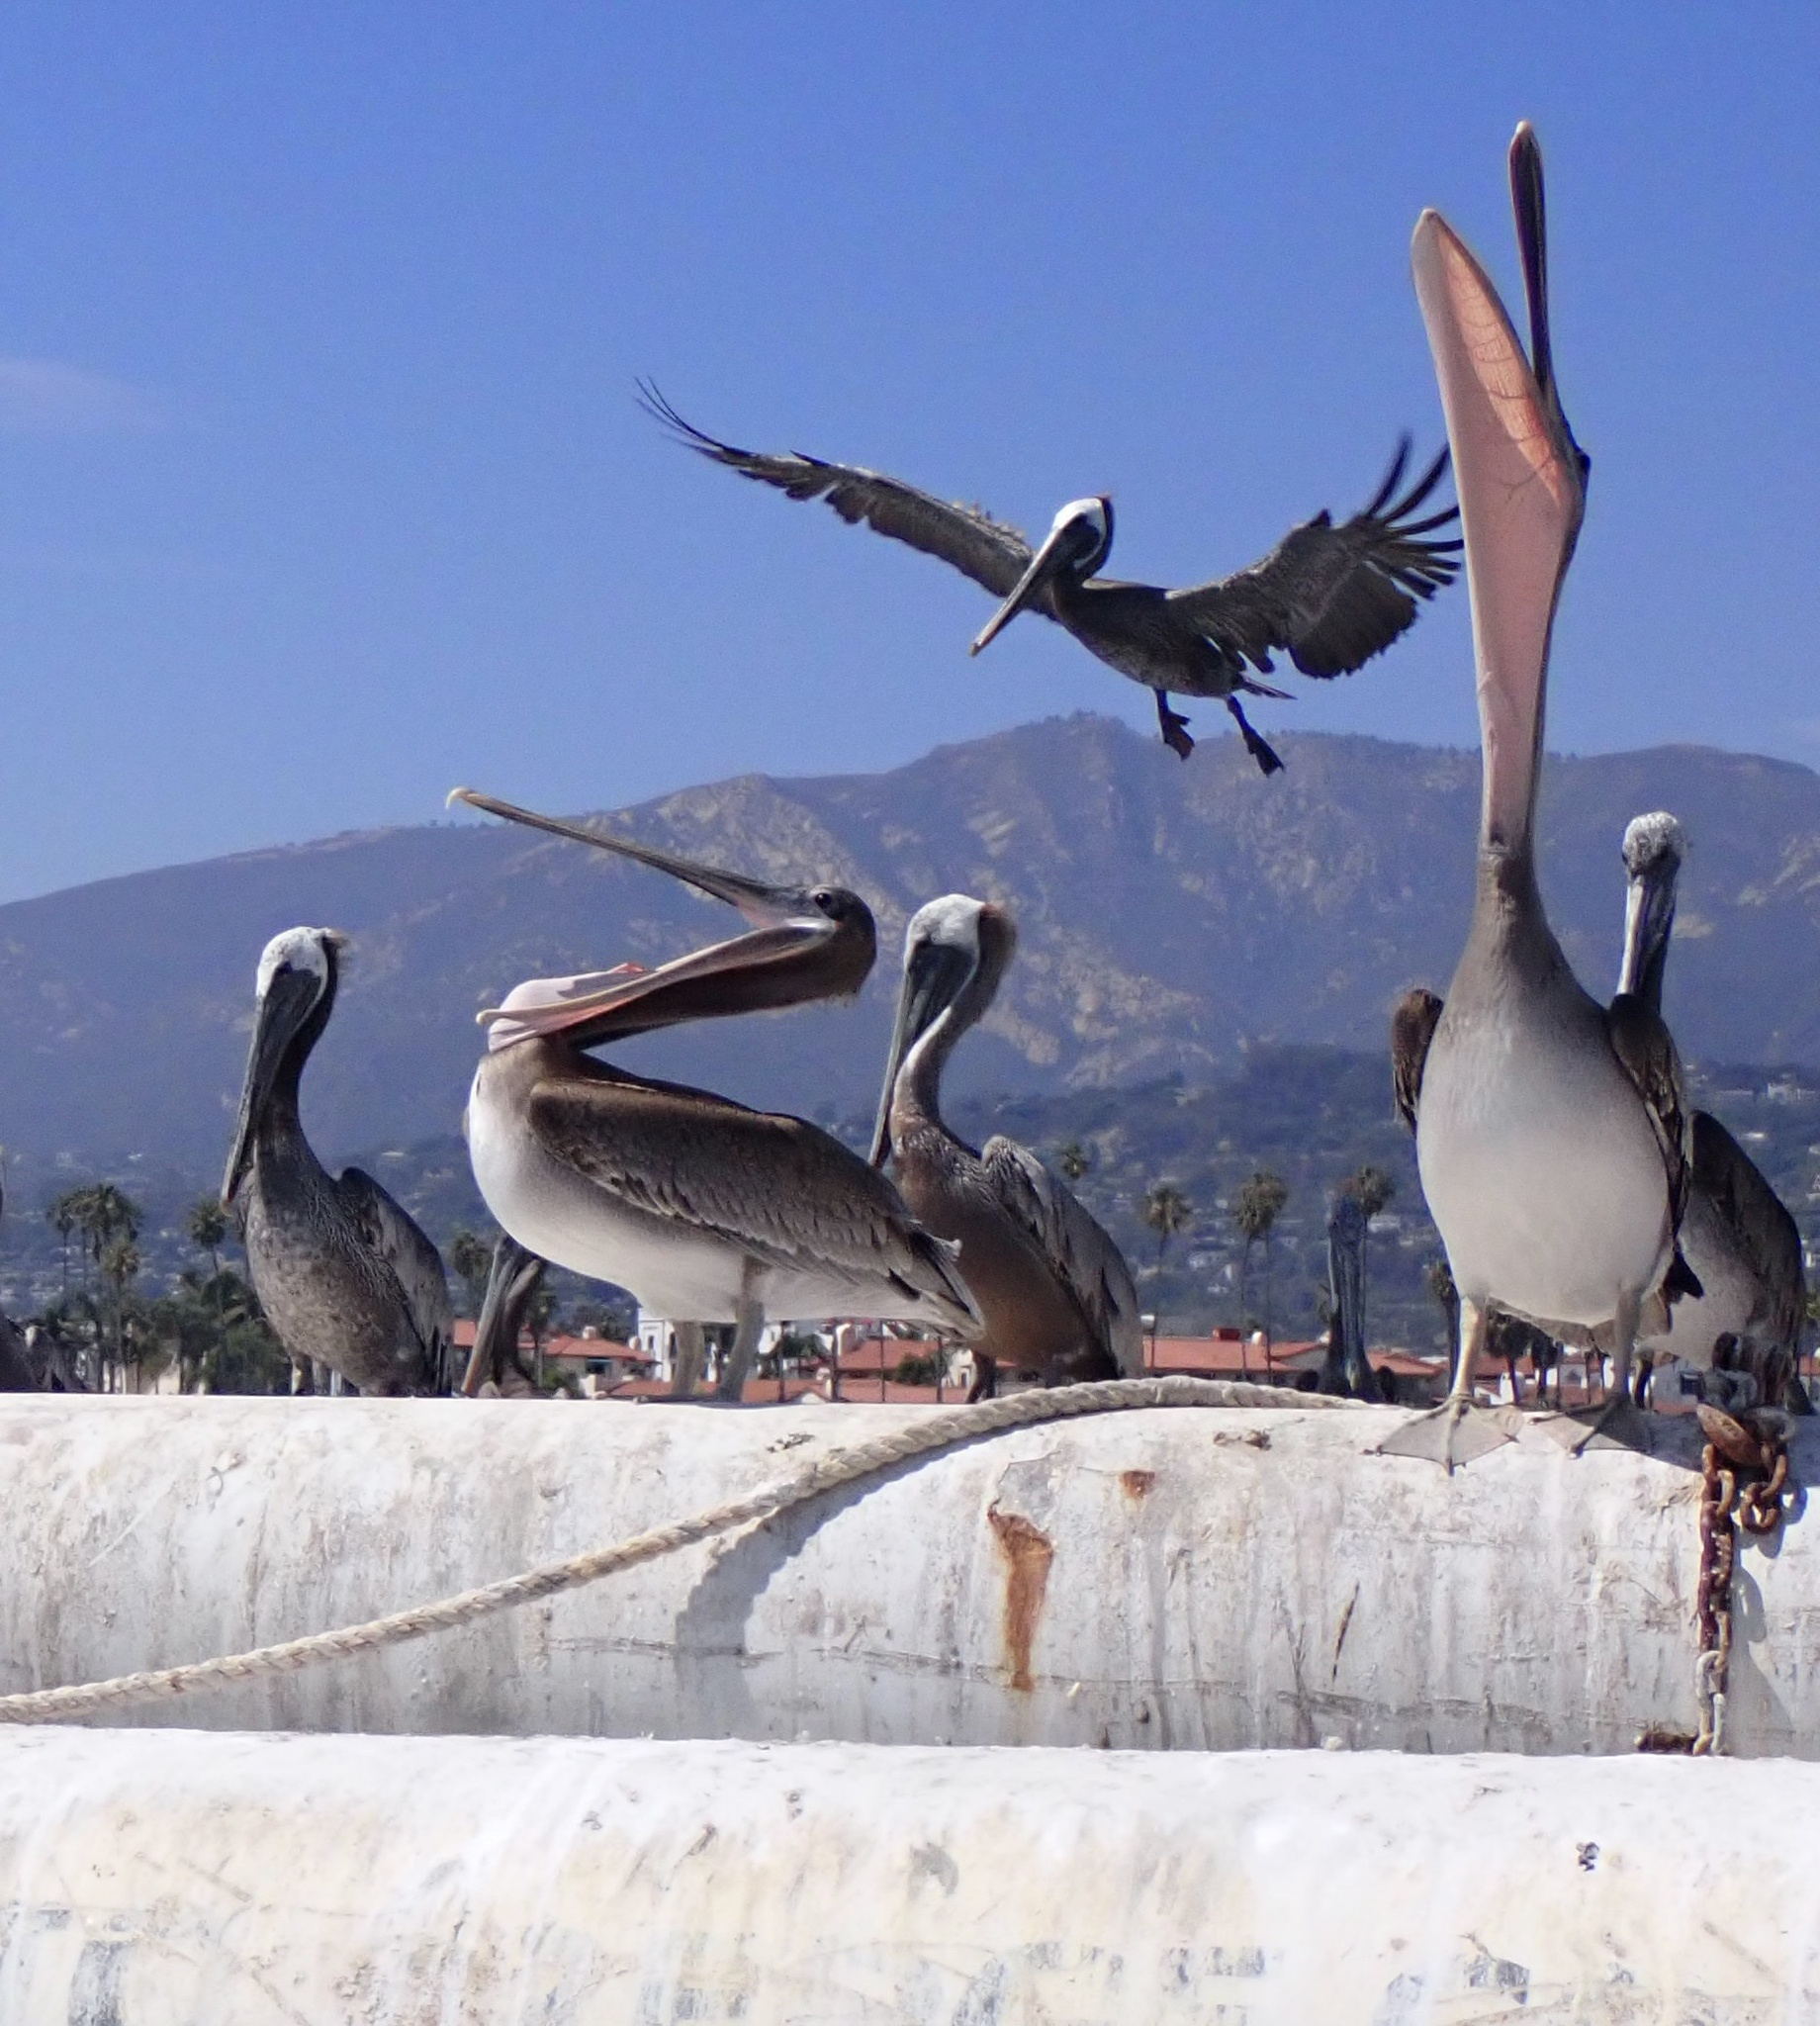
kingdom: Animalia
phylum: Chordata
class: Aves
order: Pelecaniformes
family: Pelecanidae
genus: Pelecanus
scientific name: Pelecanus occidentalis
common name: Brown pelican
